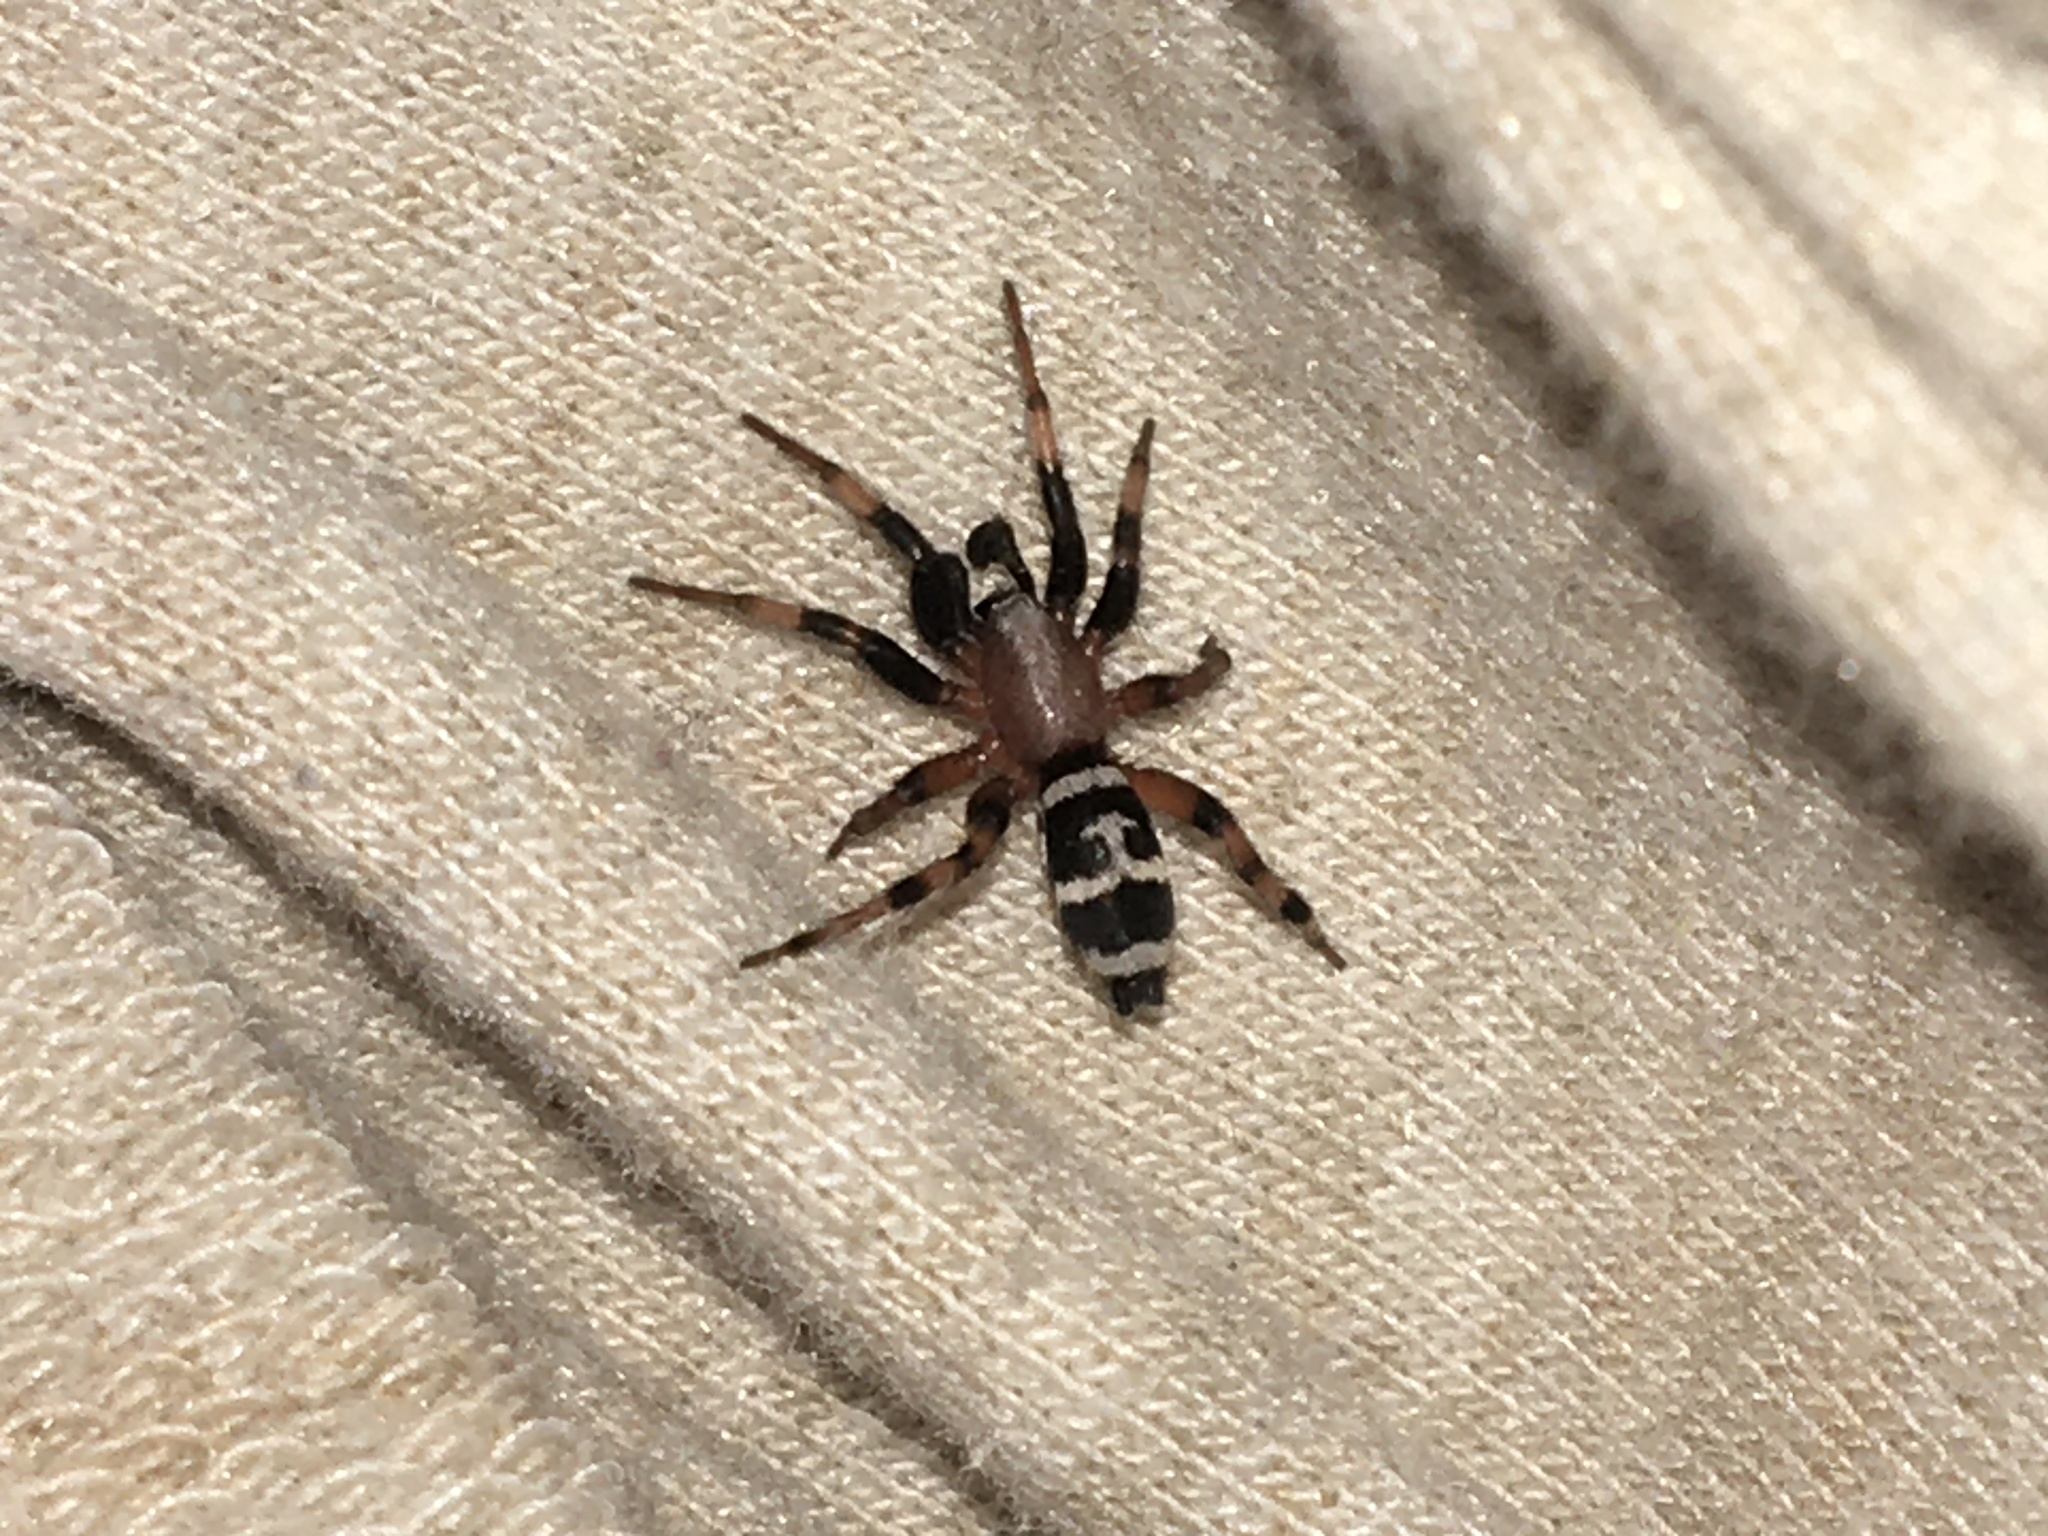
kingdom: Animalia
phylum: Arthropoda
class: Arachnida
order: Araneae
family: Gnaphosidae
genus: Sergiolus
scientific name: Sergiolus capulatus
